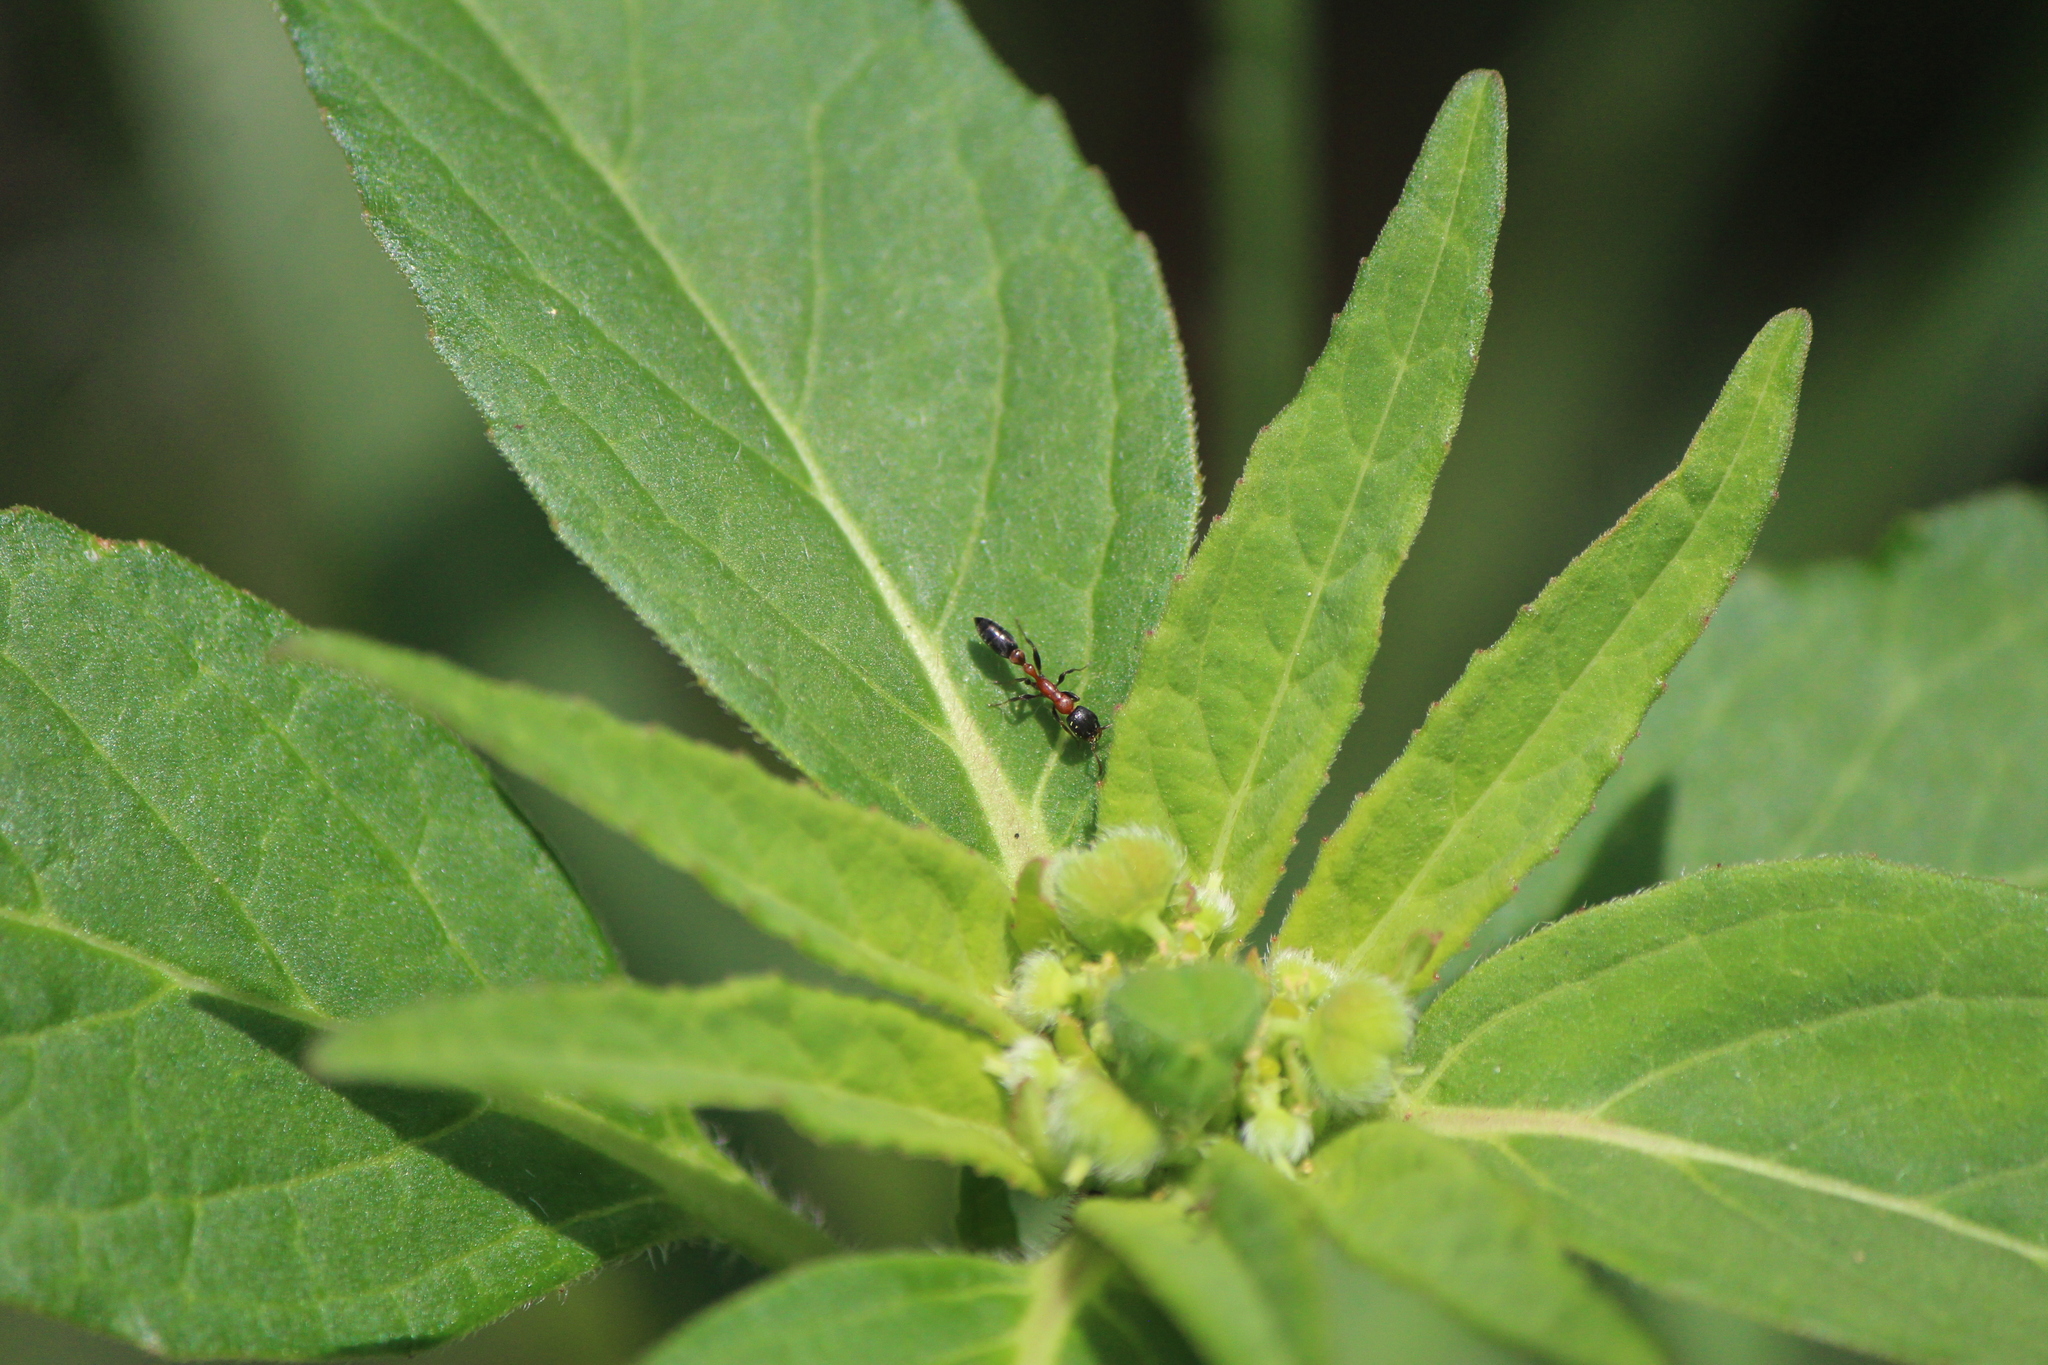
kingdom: Animalia
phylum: Arthropoda
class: Insecta
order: Hymenoptera
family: Formicidae
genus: Pseudomyrmex
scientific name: Pseudomyrmex gracilis
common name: Graceful twig ant
